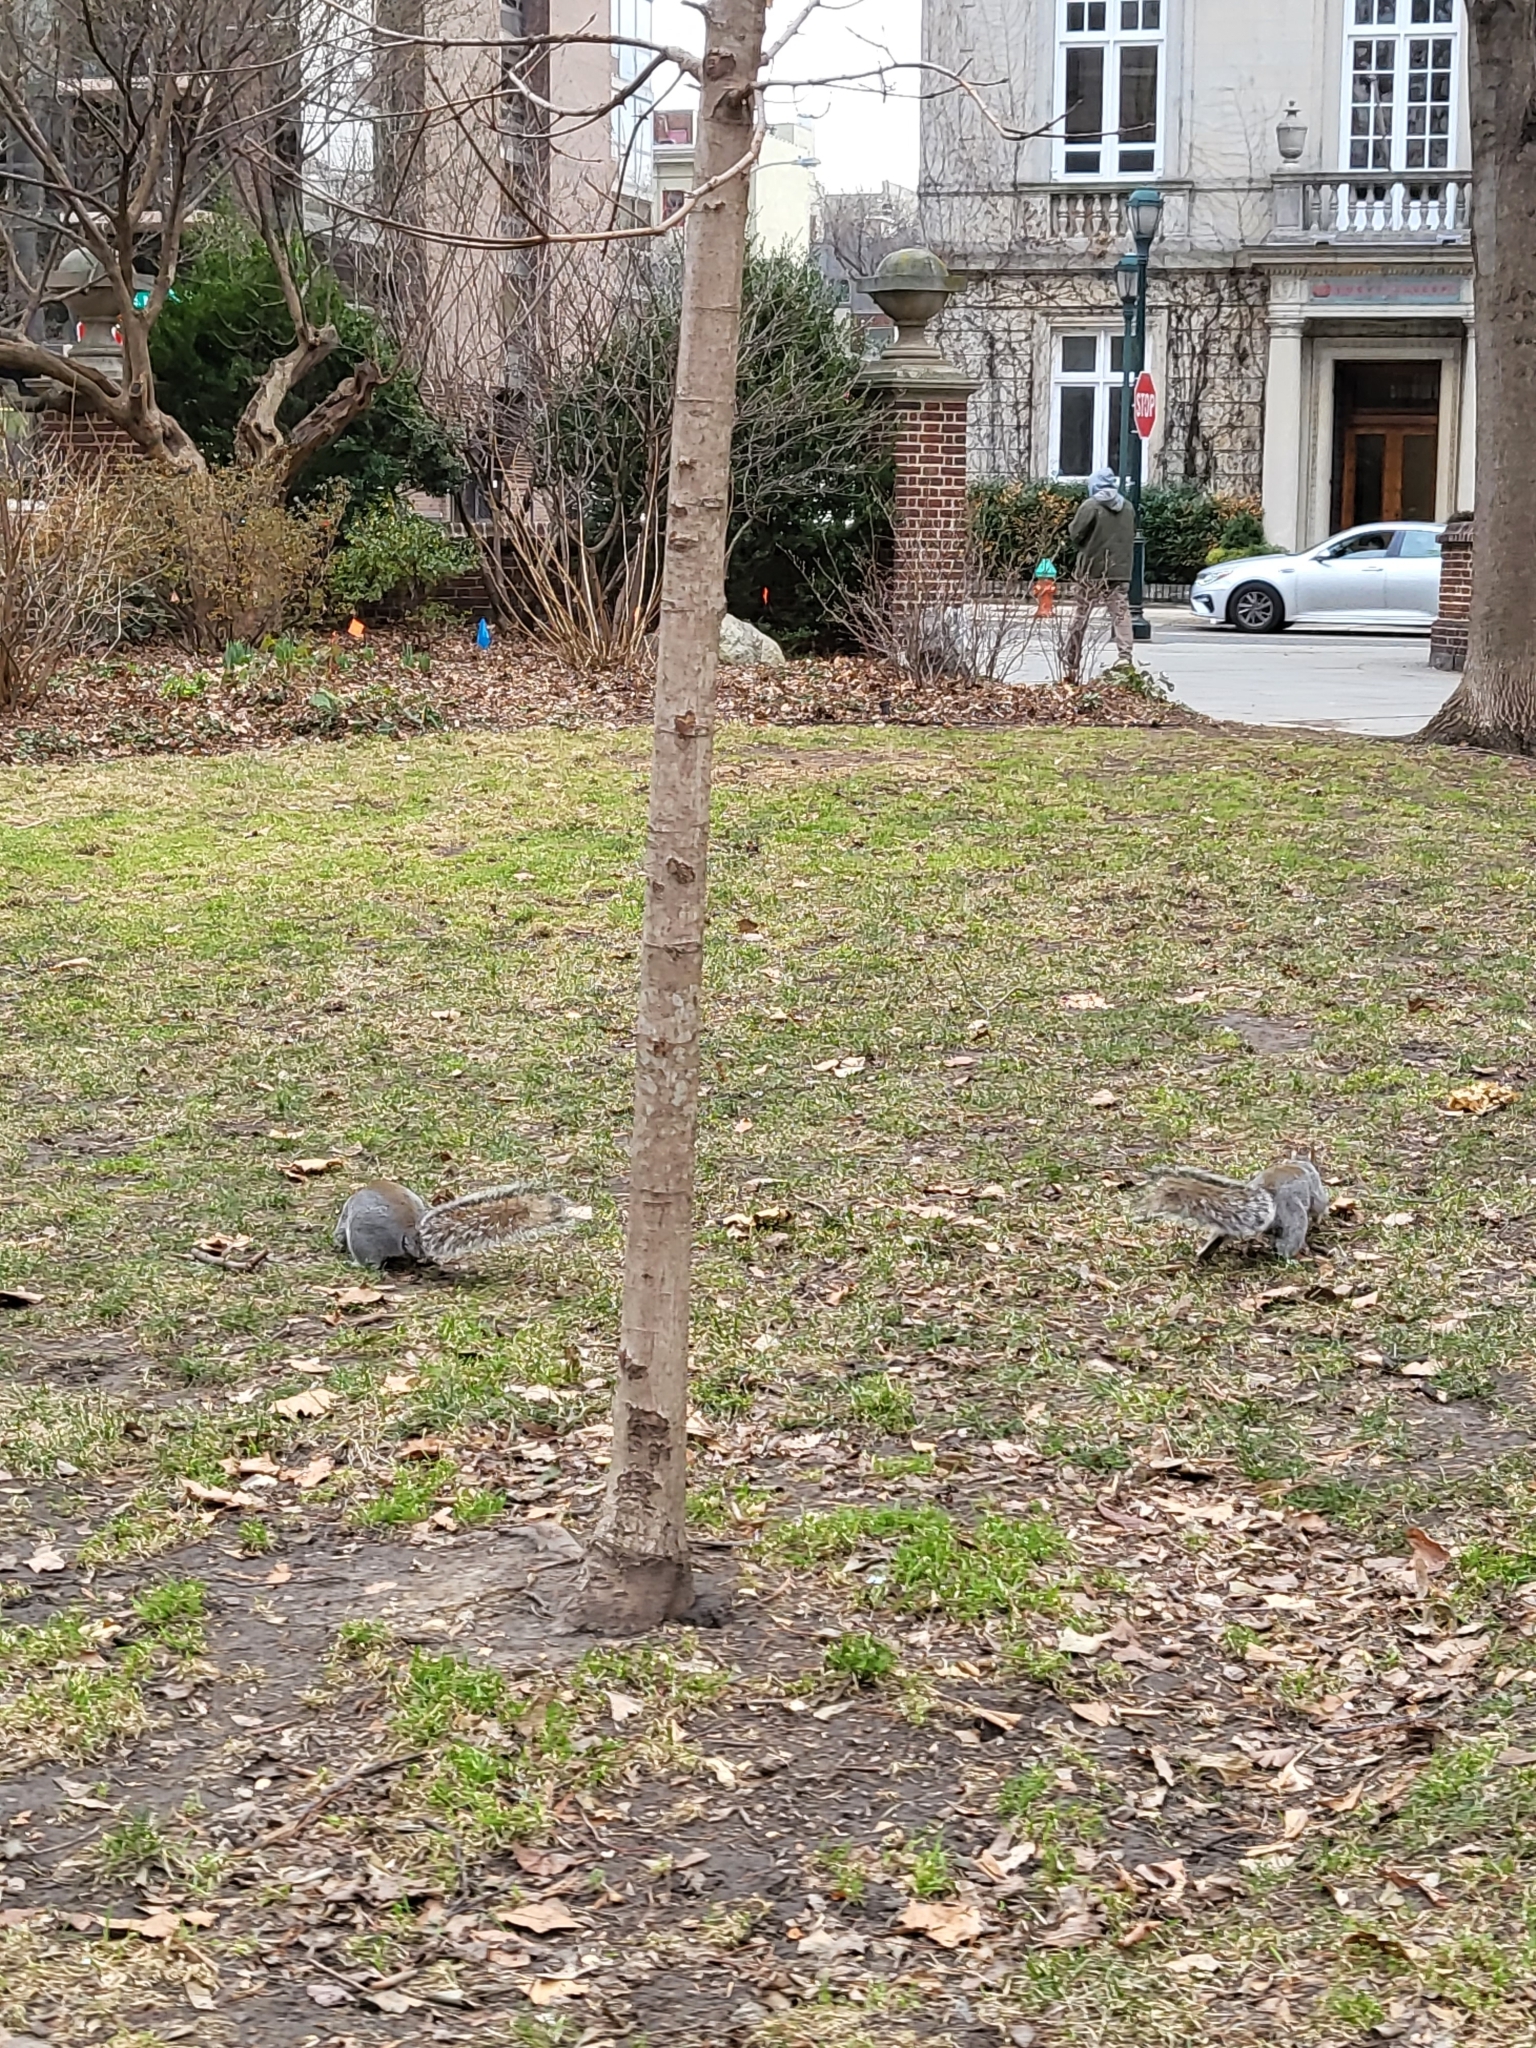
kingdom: Animalia
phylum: Chordata
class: Mammalia
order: Rodentia
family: Sciuridae
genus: Sciurus
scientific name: Sciurus carolinensis
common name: Eastern gray squirrel
